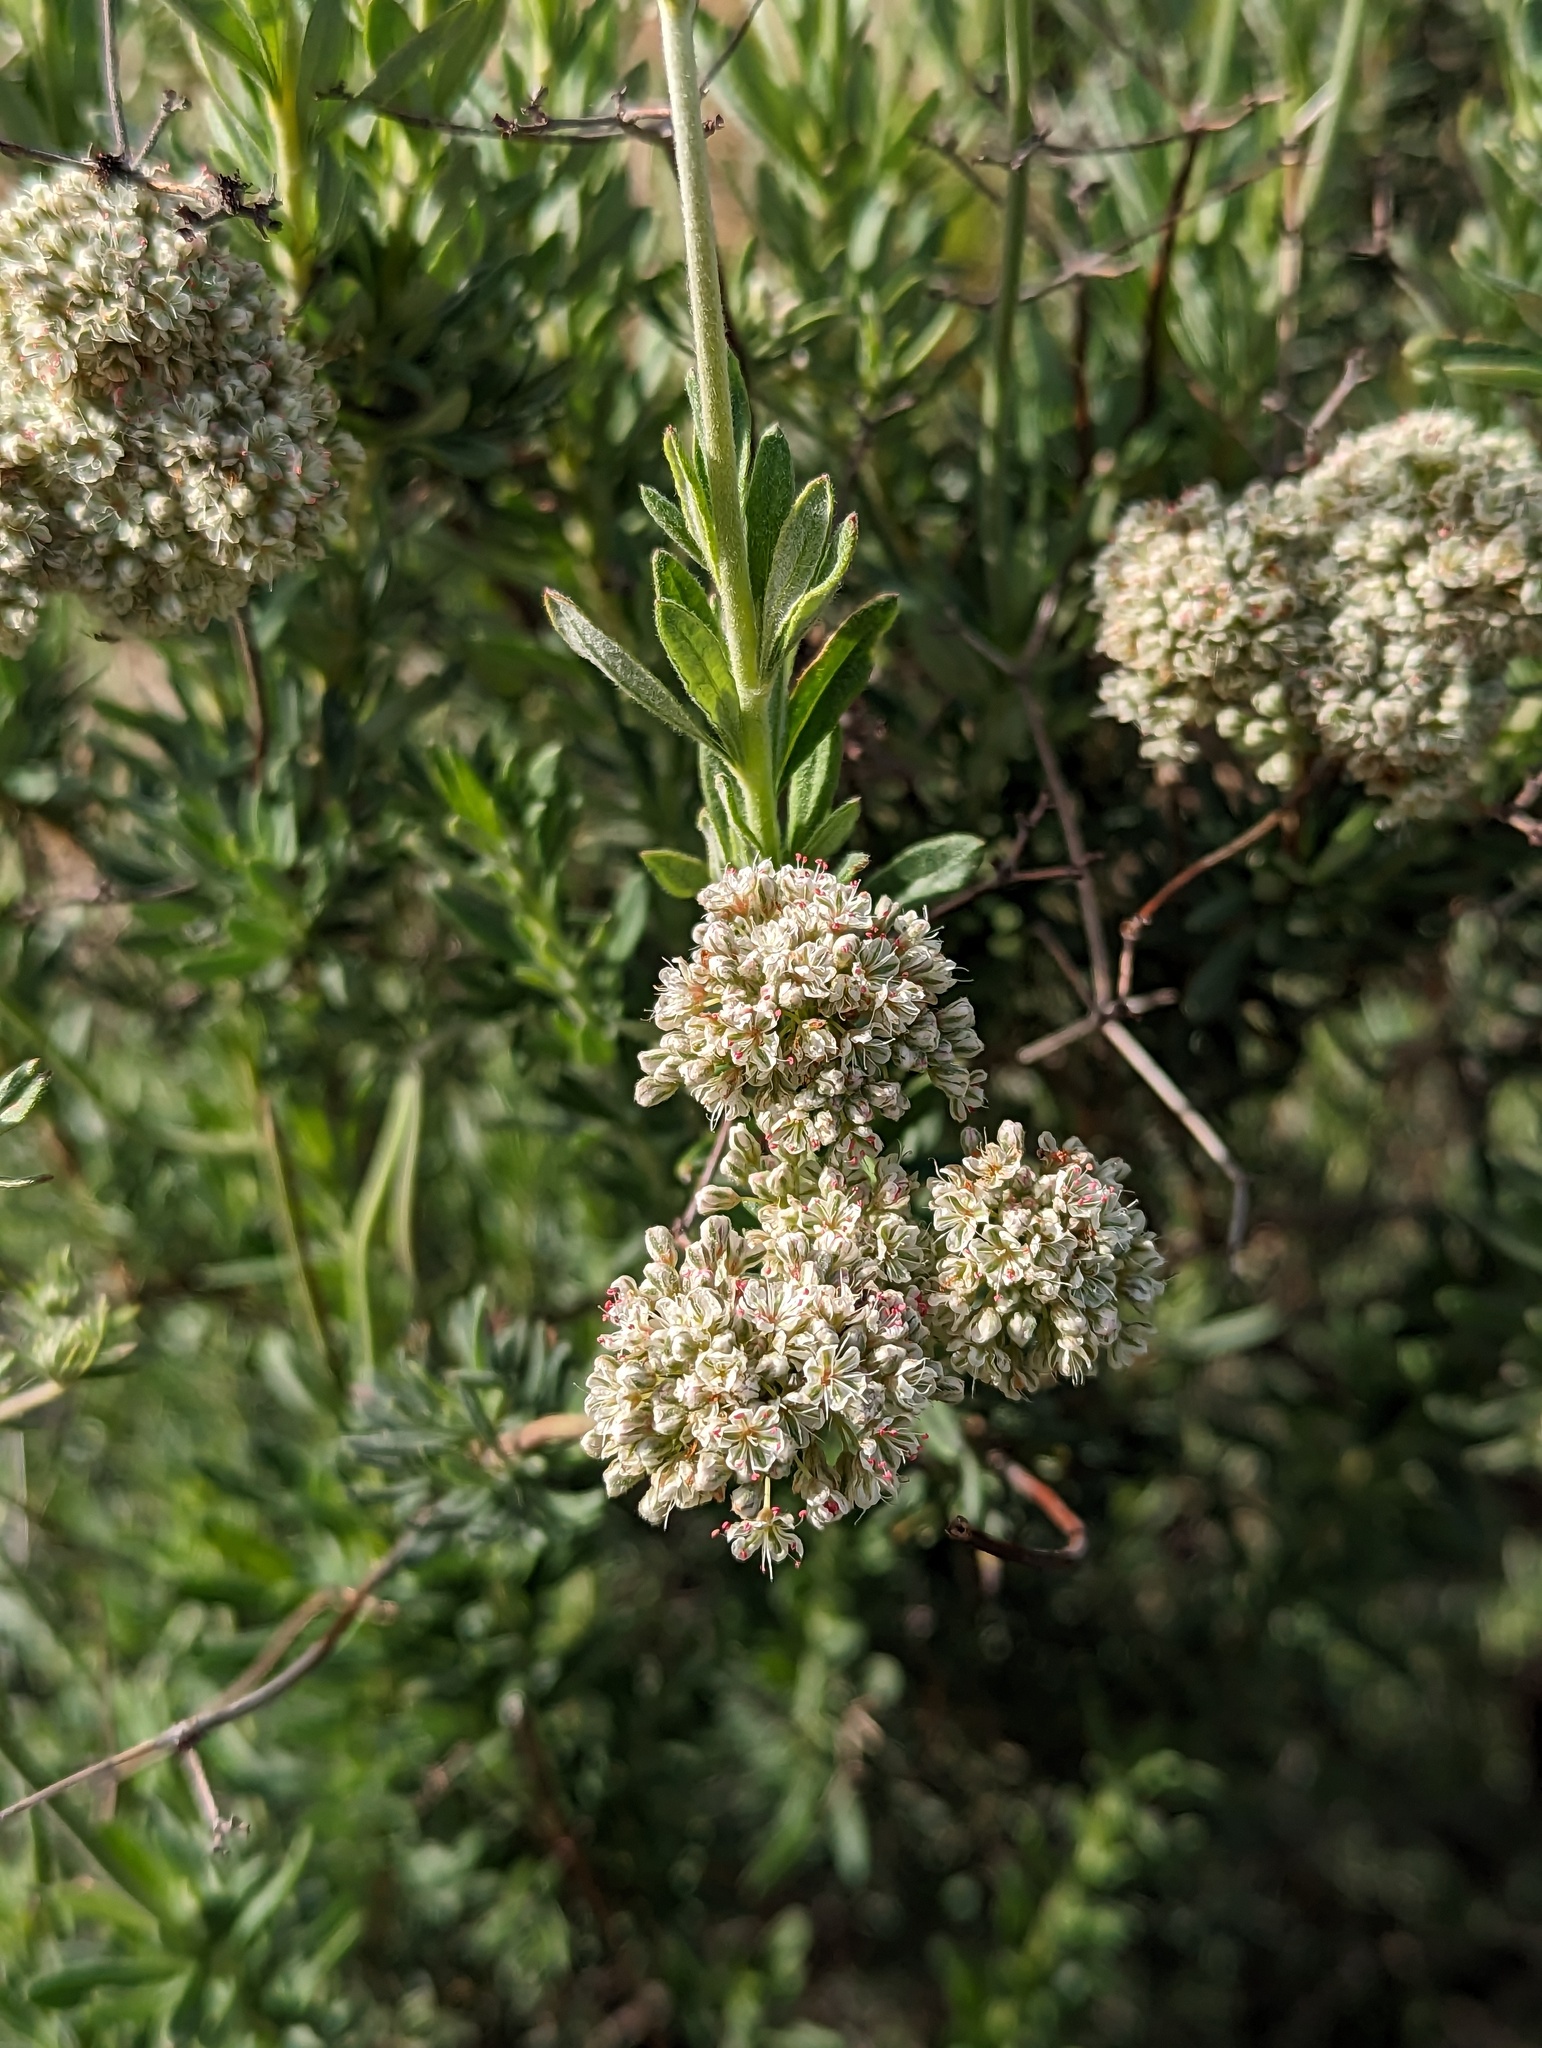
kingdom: Plantae
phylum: Tracheophyta
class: Magnoliopsida
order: Caryophyllales
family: Polygonaceae
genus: Eriogonum
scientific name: Eriogonum fasciculatum
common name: California wild buckwheat
